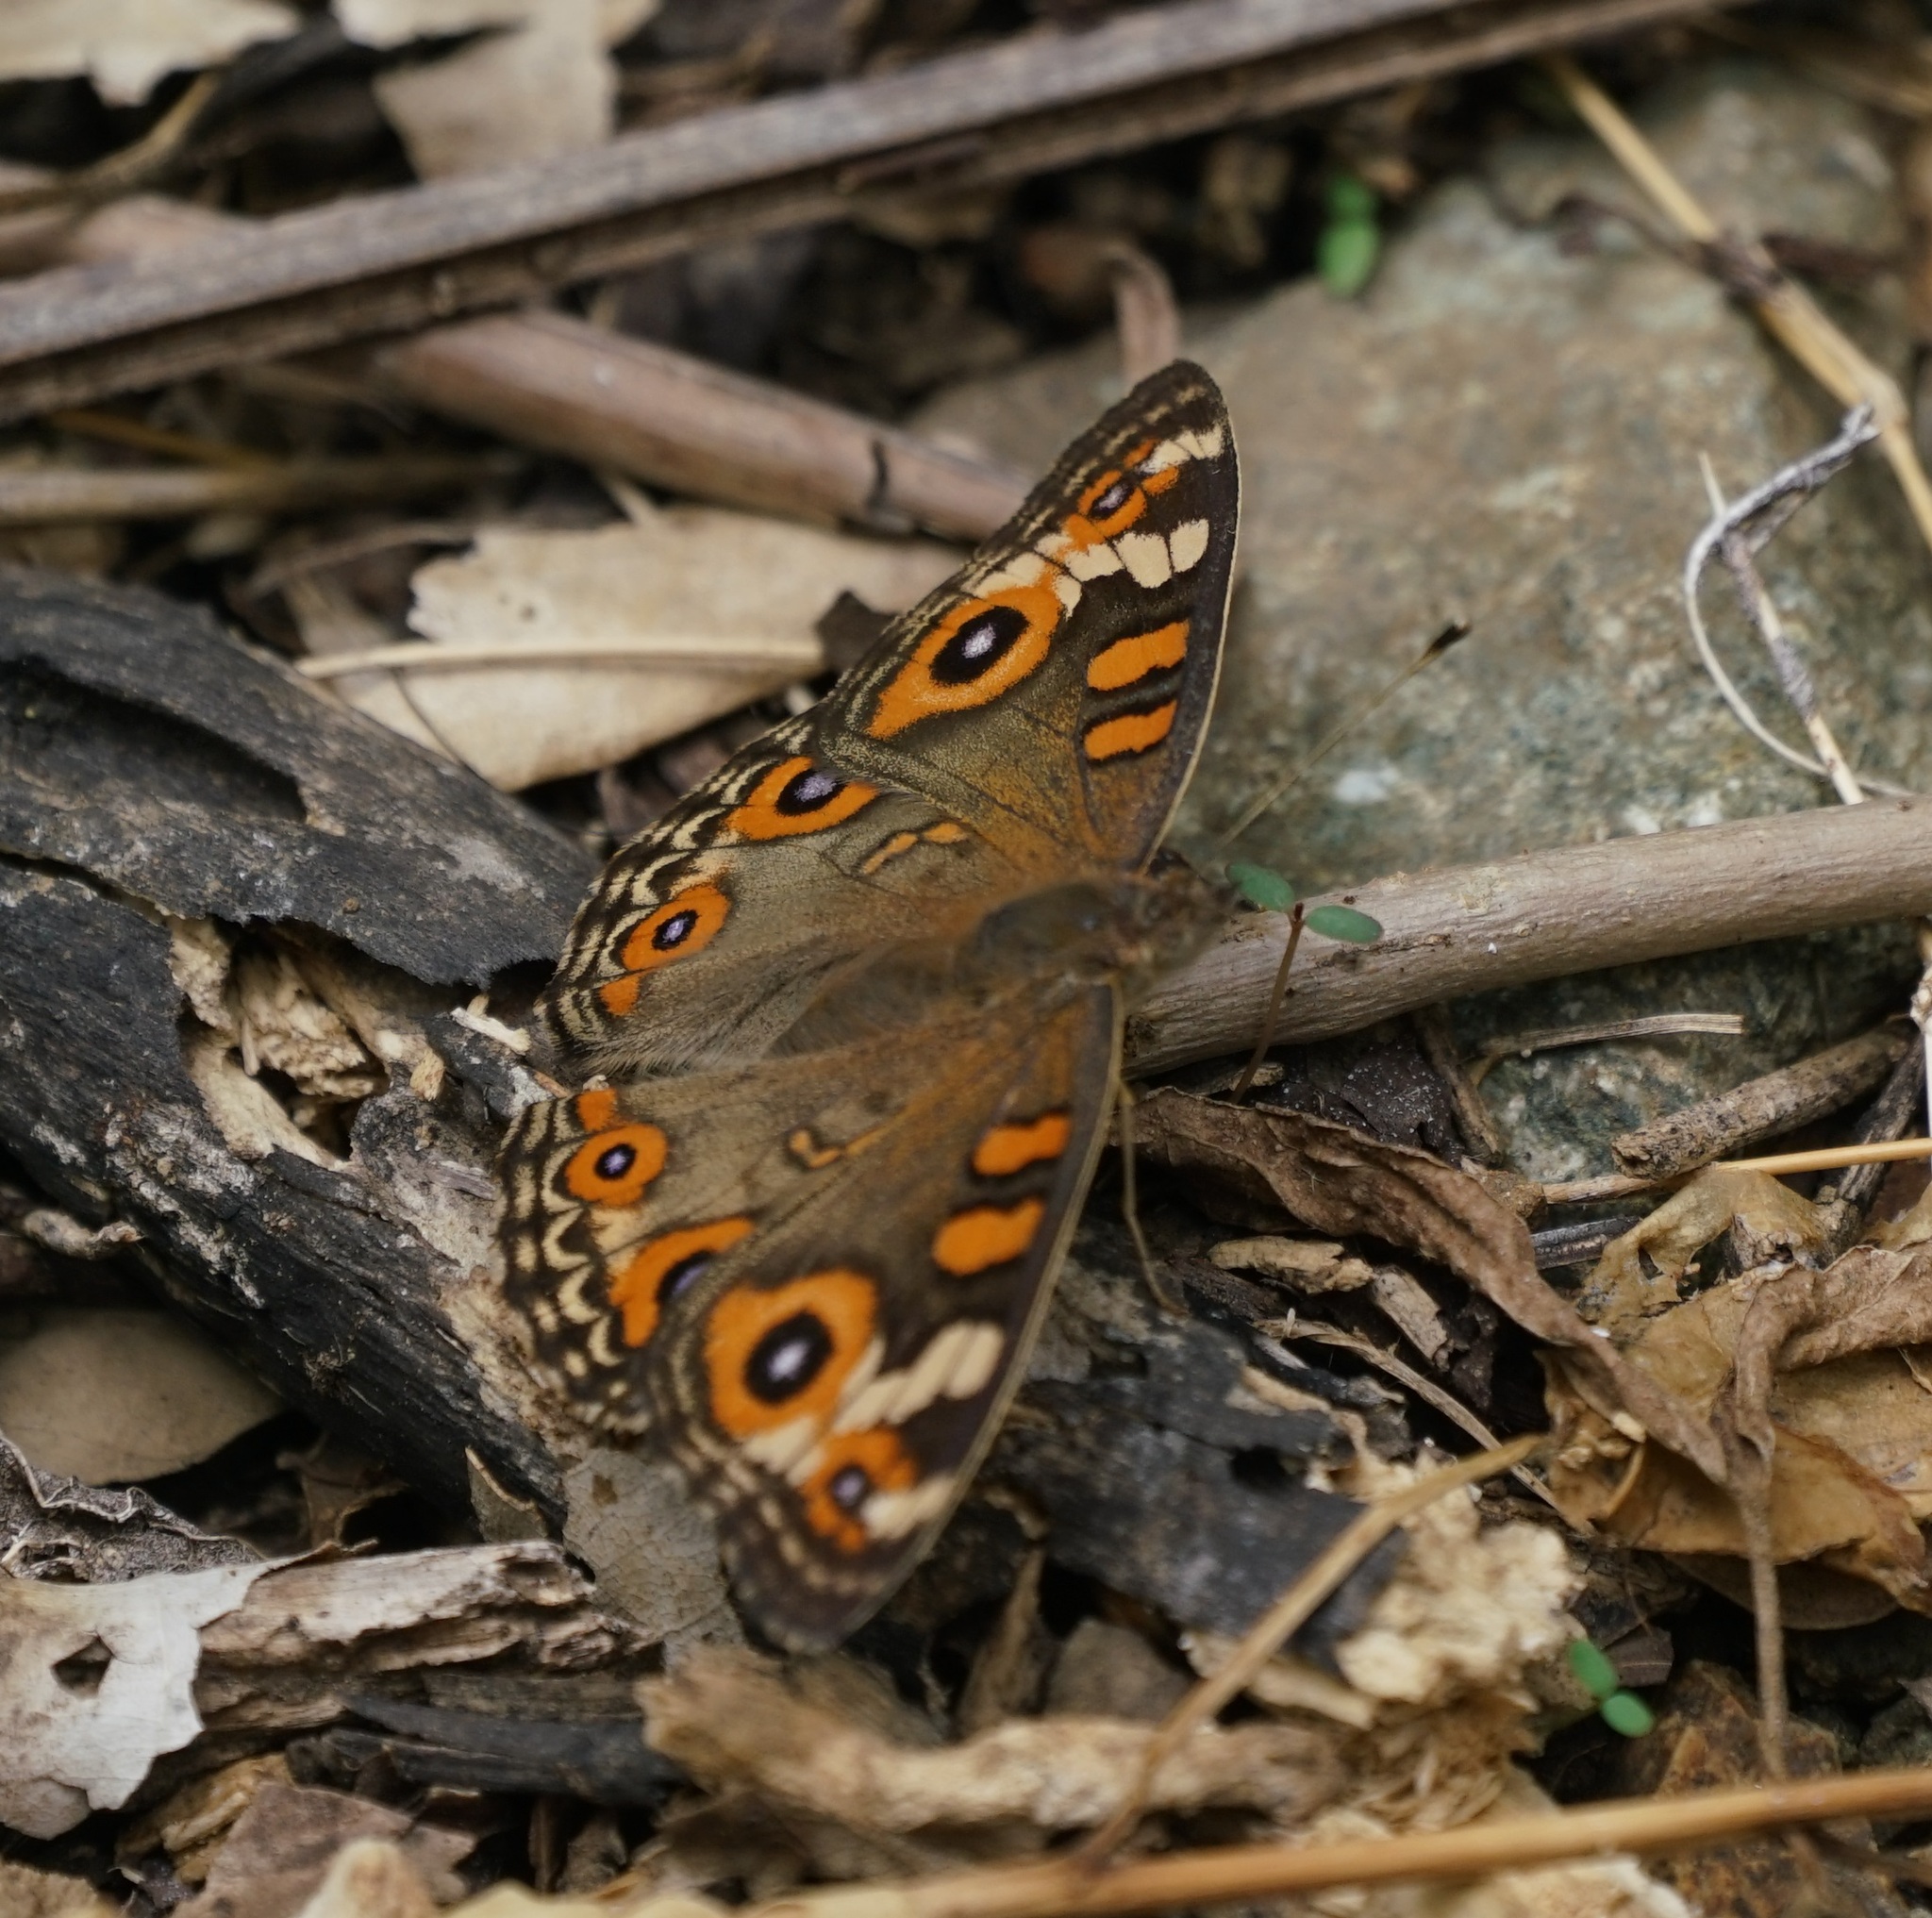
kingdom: Animalia
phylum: Arthropoda
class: Insecta
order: Lepidoptera
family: Nymphalidae
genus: Junonia
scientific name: Junonia villida
